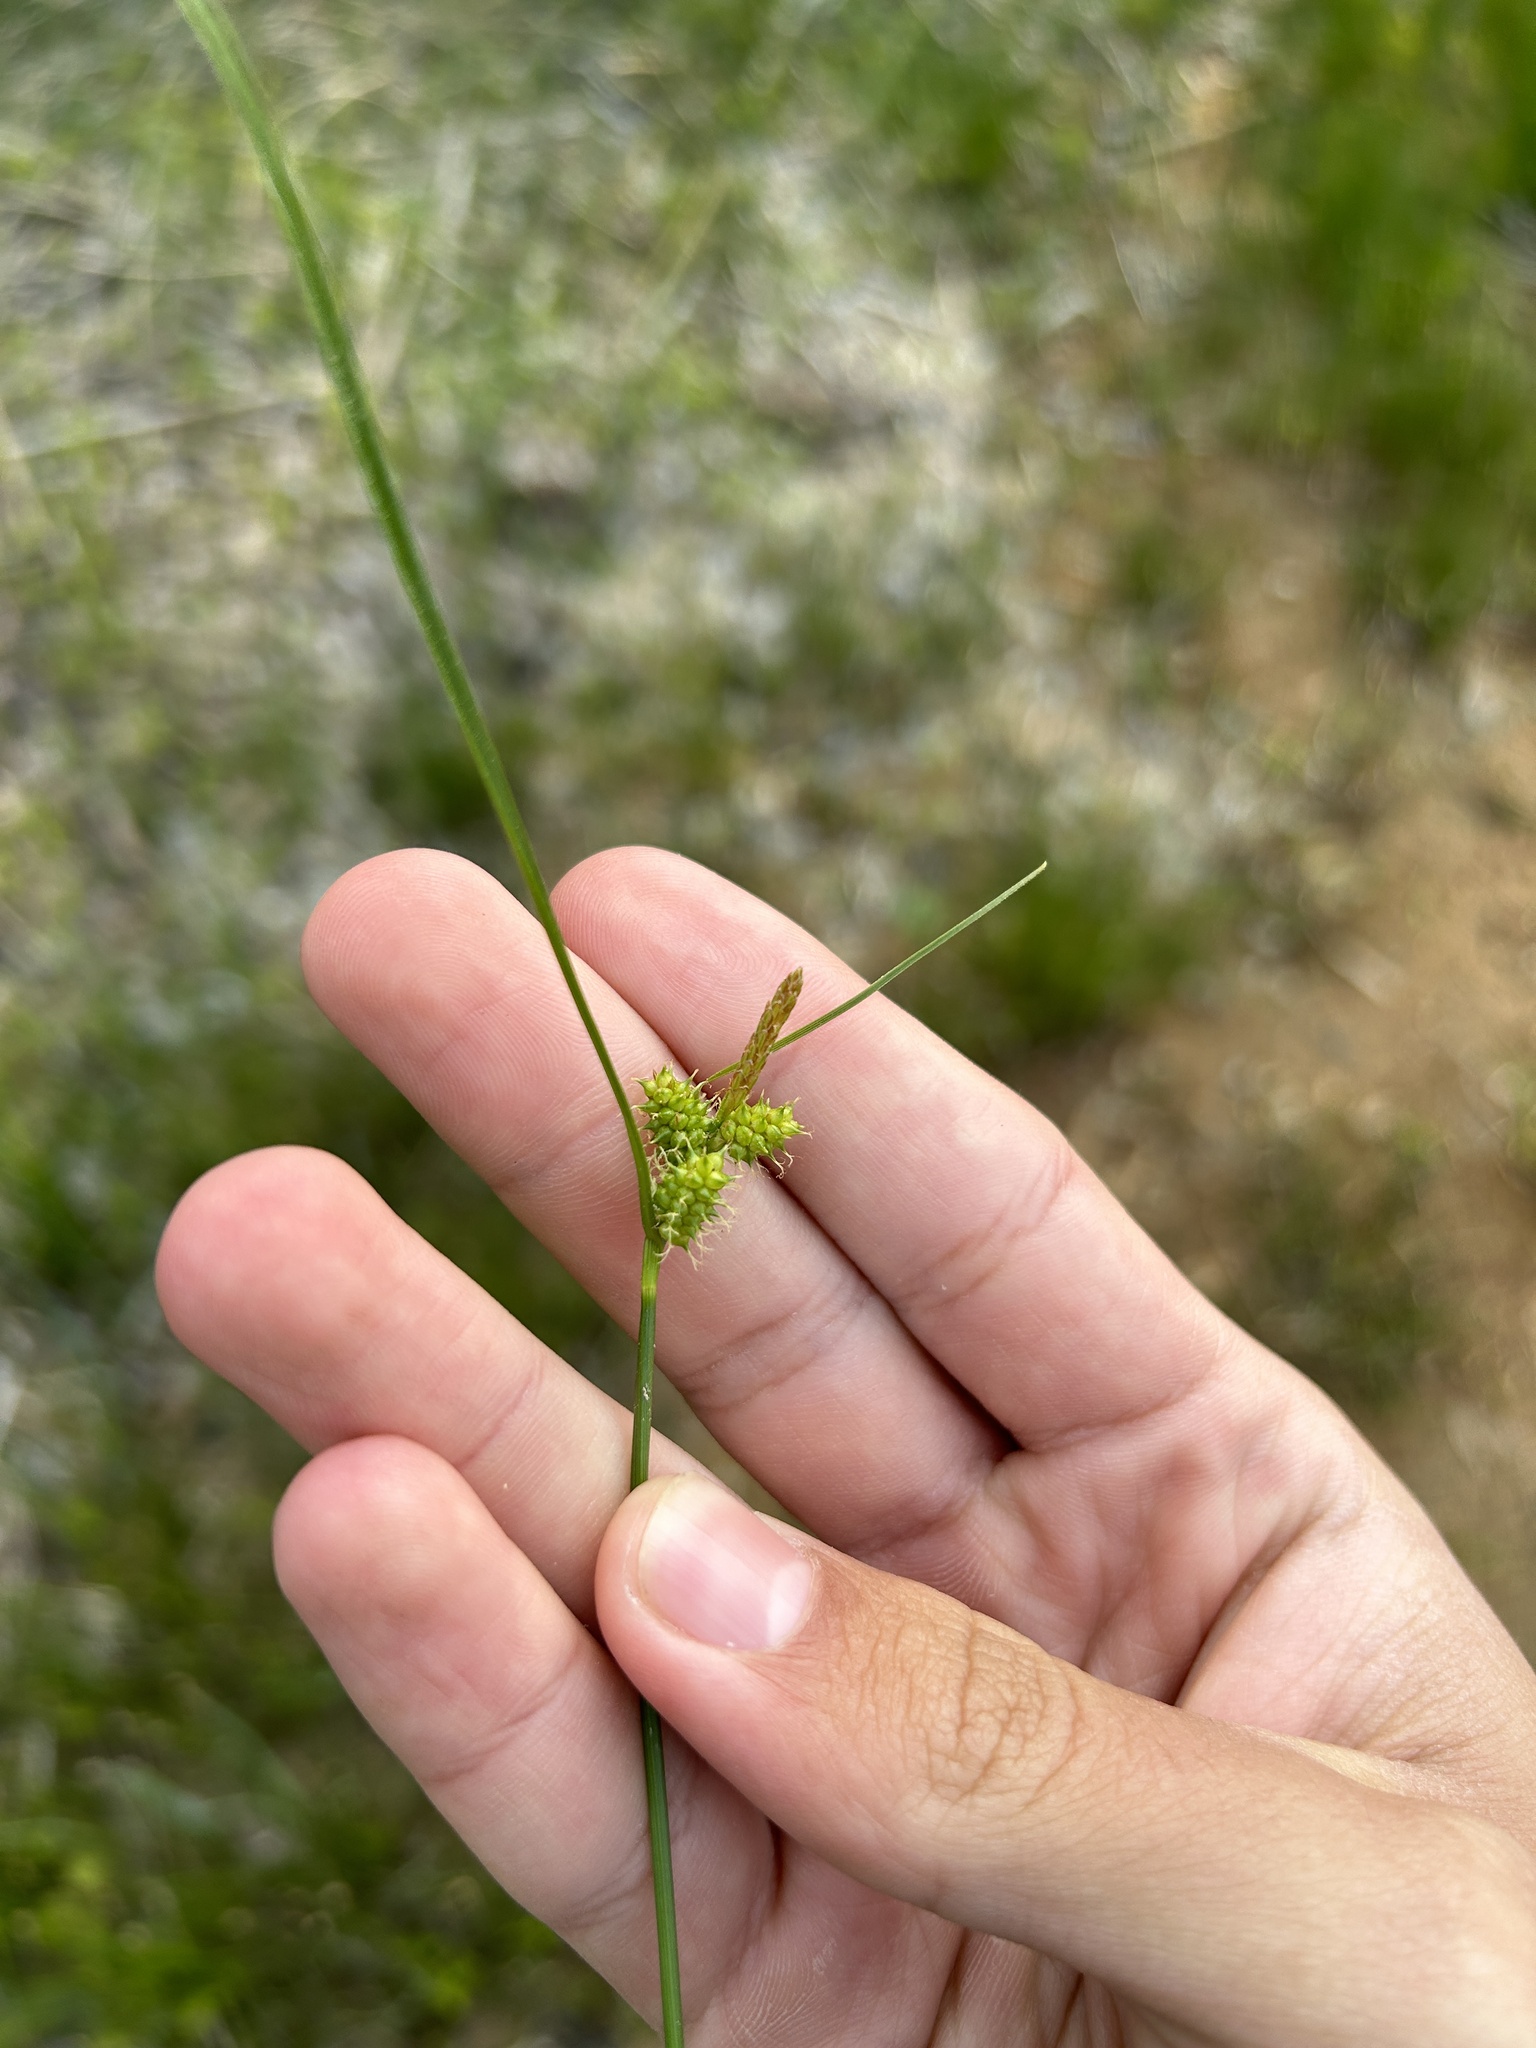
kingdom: Plantae
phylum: Tracheophyta
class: Liliopsida
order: Poales
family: Cyperaceae
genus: Carex
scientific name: Carex
